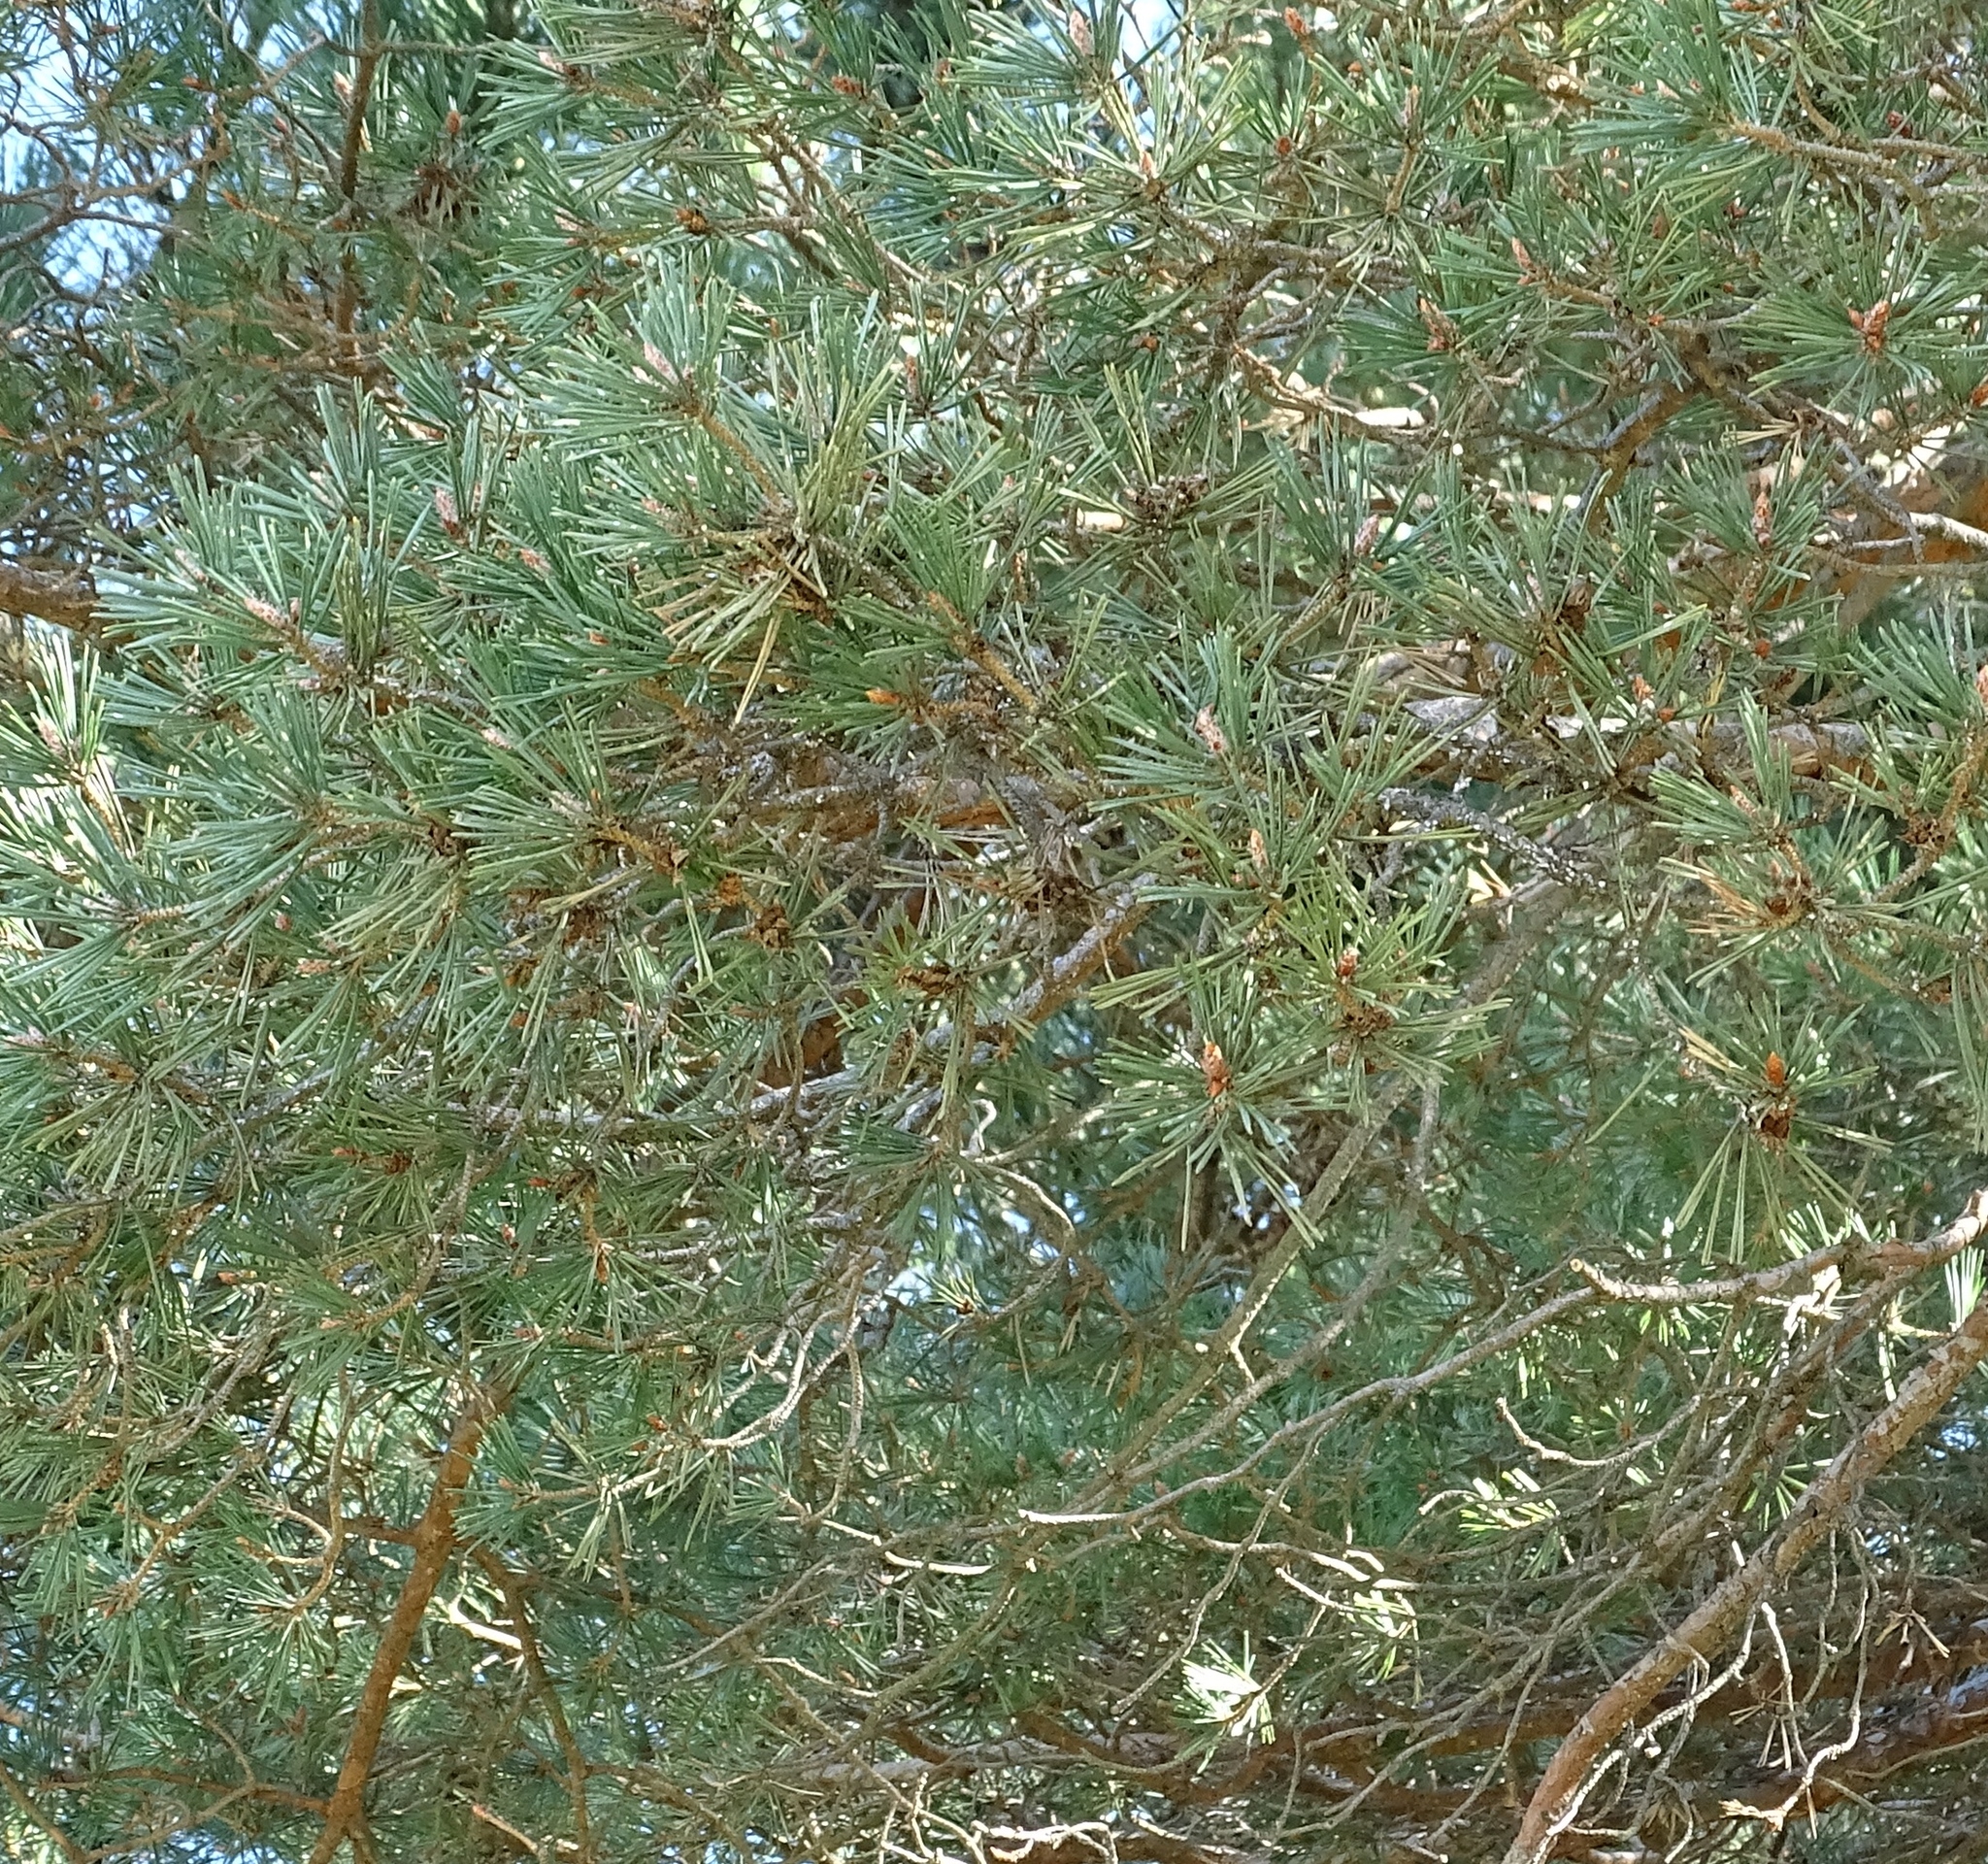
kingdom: Plantae
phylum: Tracheophyta
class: Pinopsida
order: Pinales
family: Pinaceae
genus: Pinus
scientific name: Pinus sylvestris
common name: Scots pine
